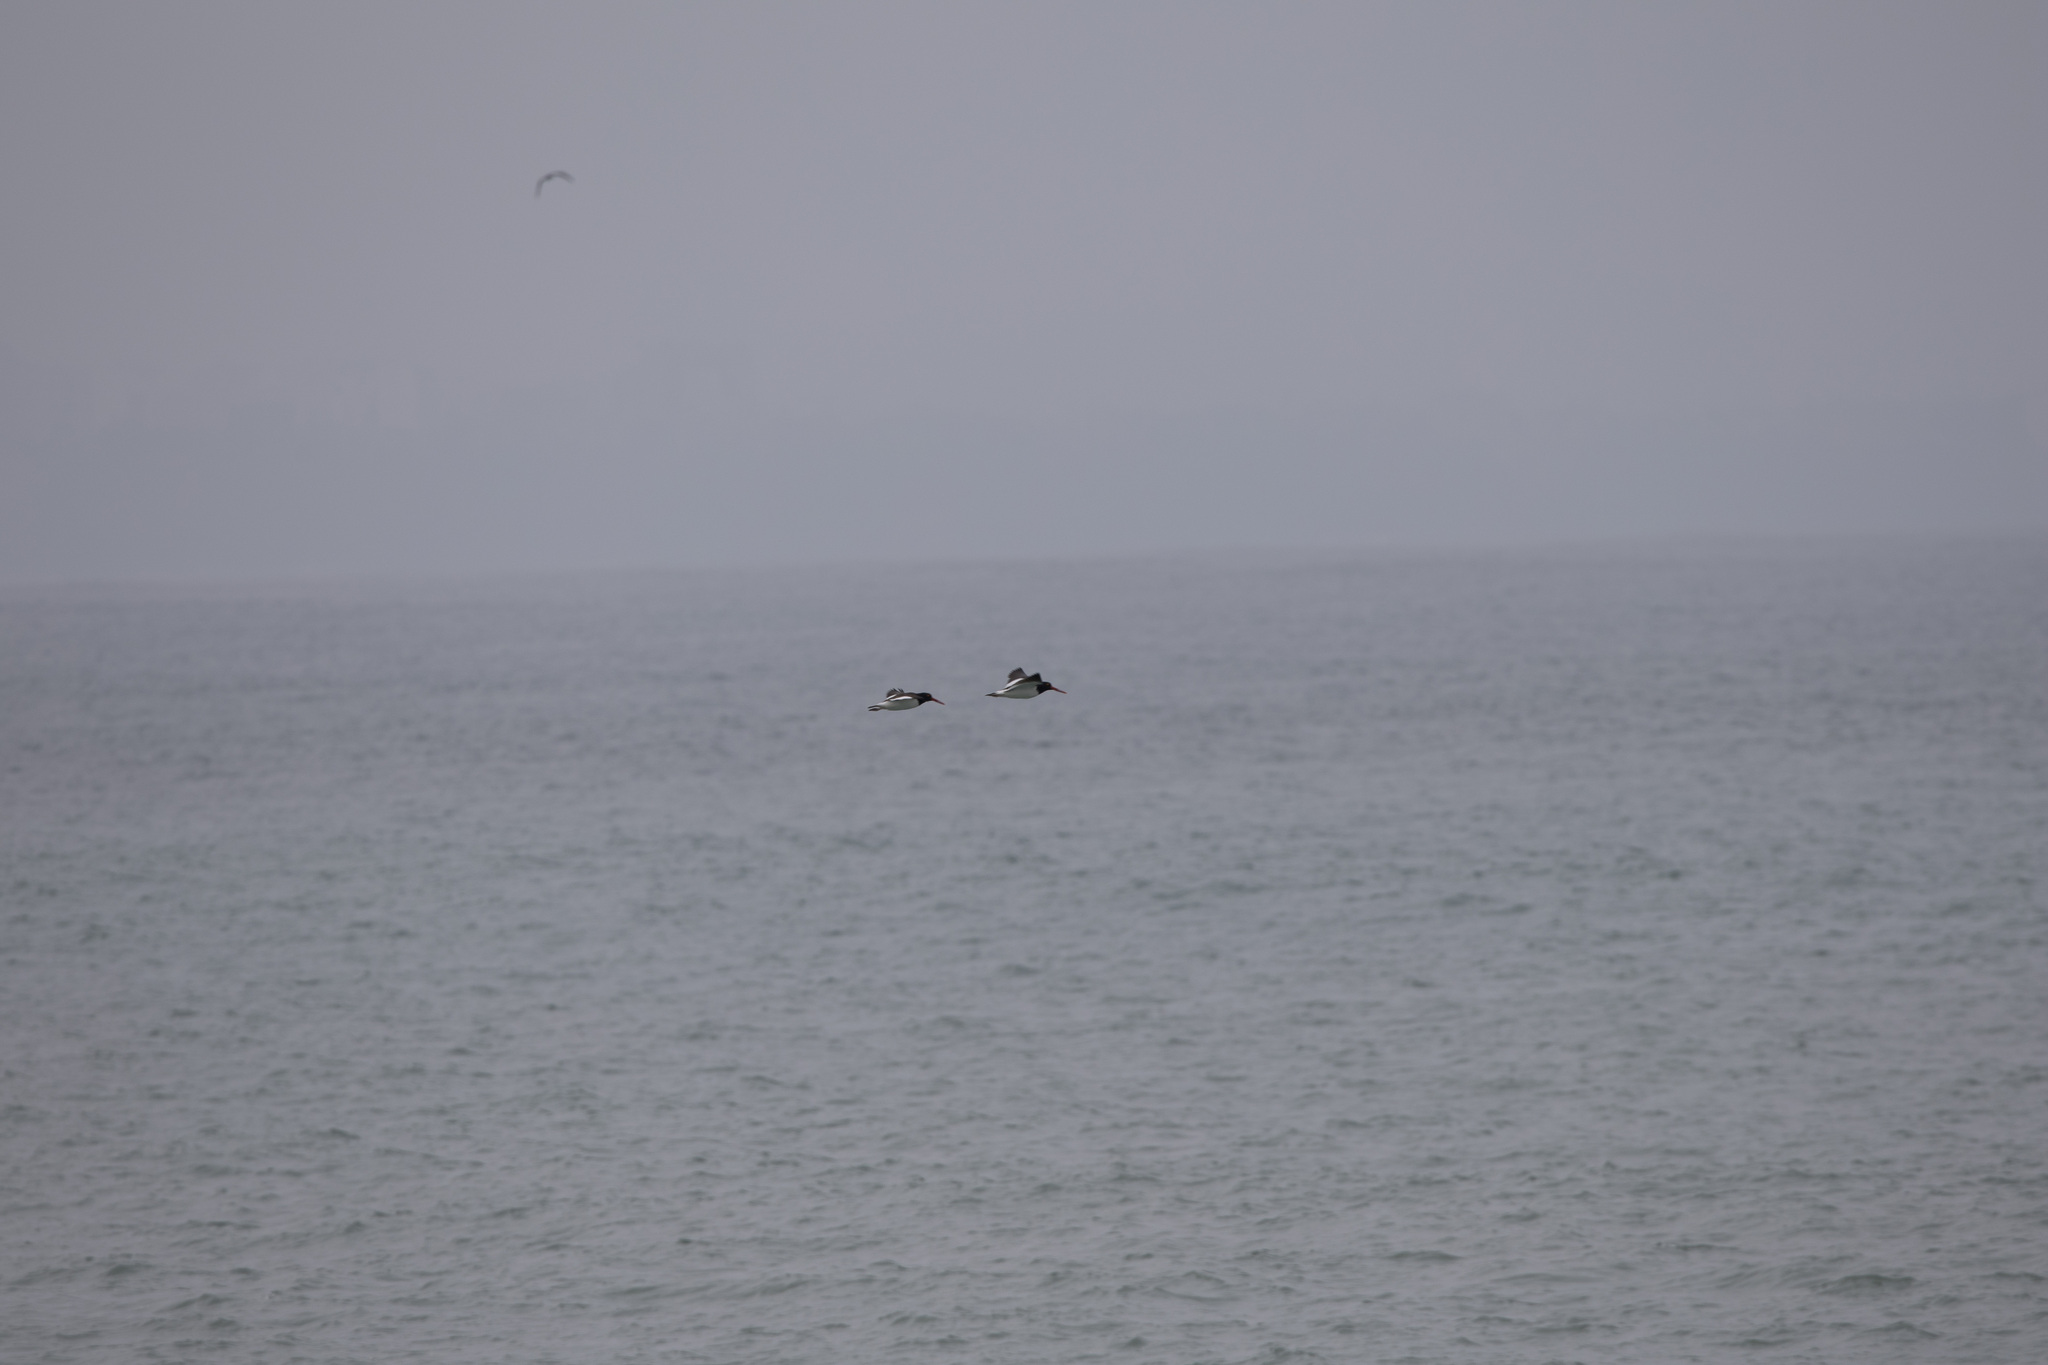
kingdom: Animalia
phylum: Chordata
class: Aves
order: Charadriiformes
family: Haematopodidae
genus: Haematopus
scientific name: Haematopus palliatus
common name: American oystercatcher
